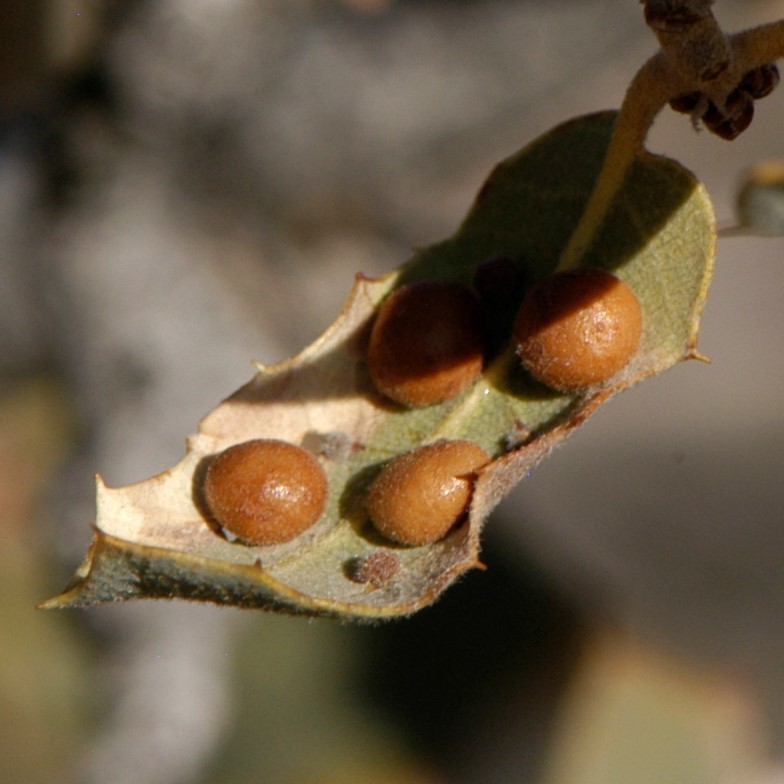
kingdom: Animalia
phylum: Arthropoda
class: Insecta
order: Hymenoptera
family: Cynipidae
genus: Biorhiza
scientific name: Biorhiza
